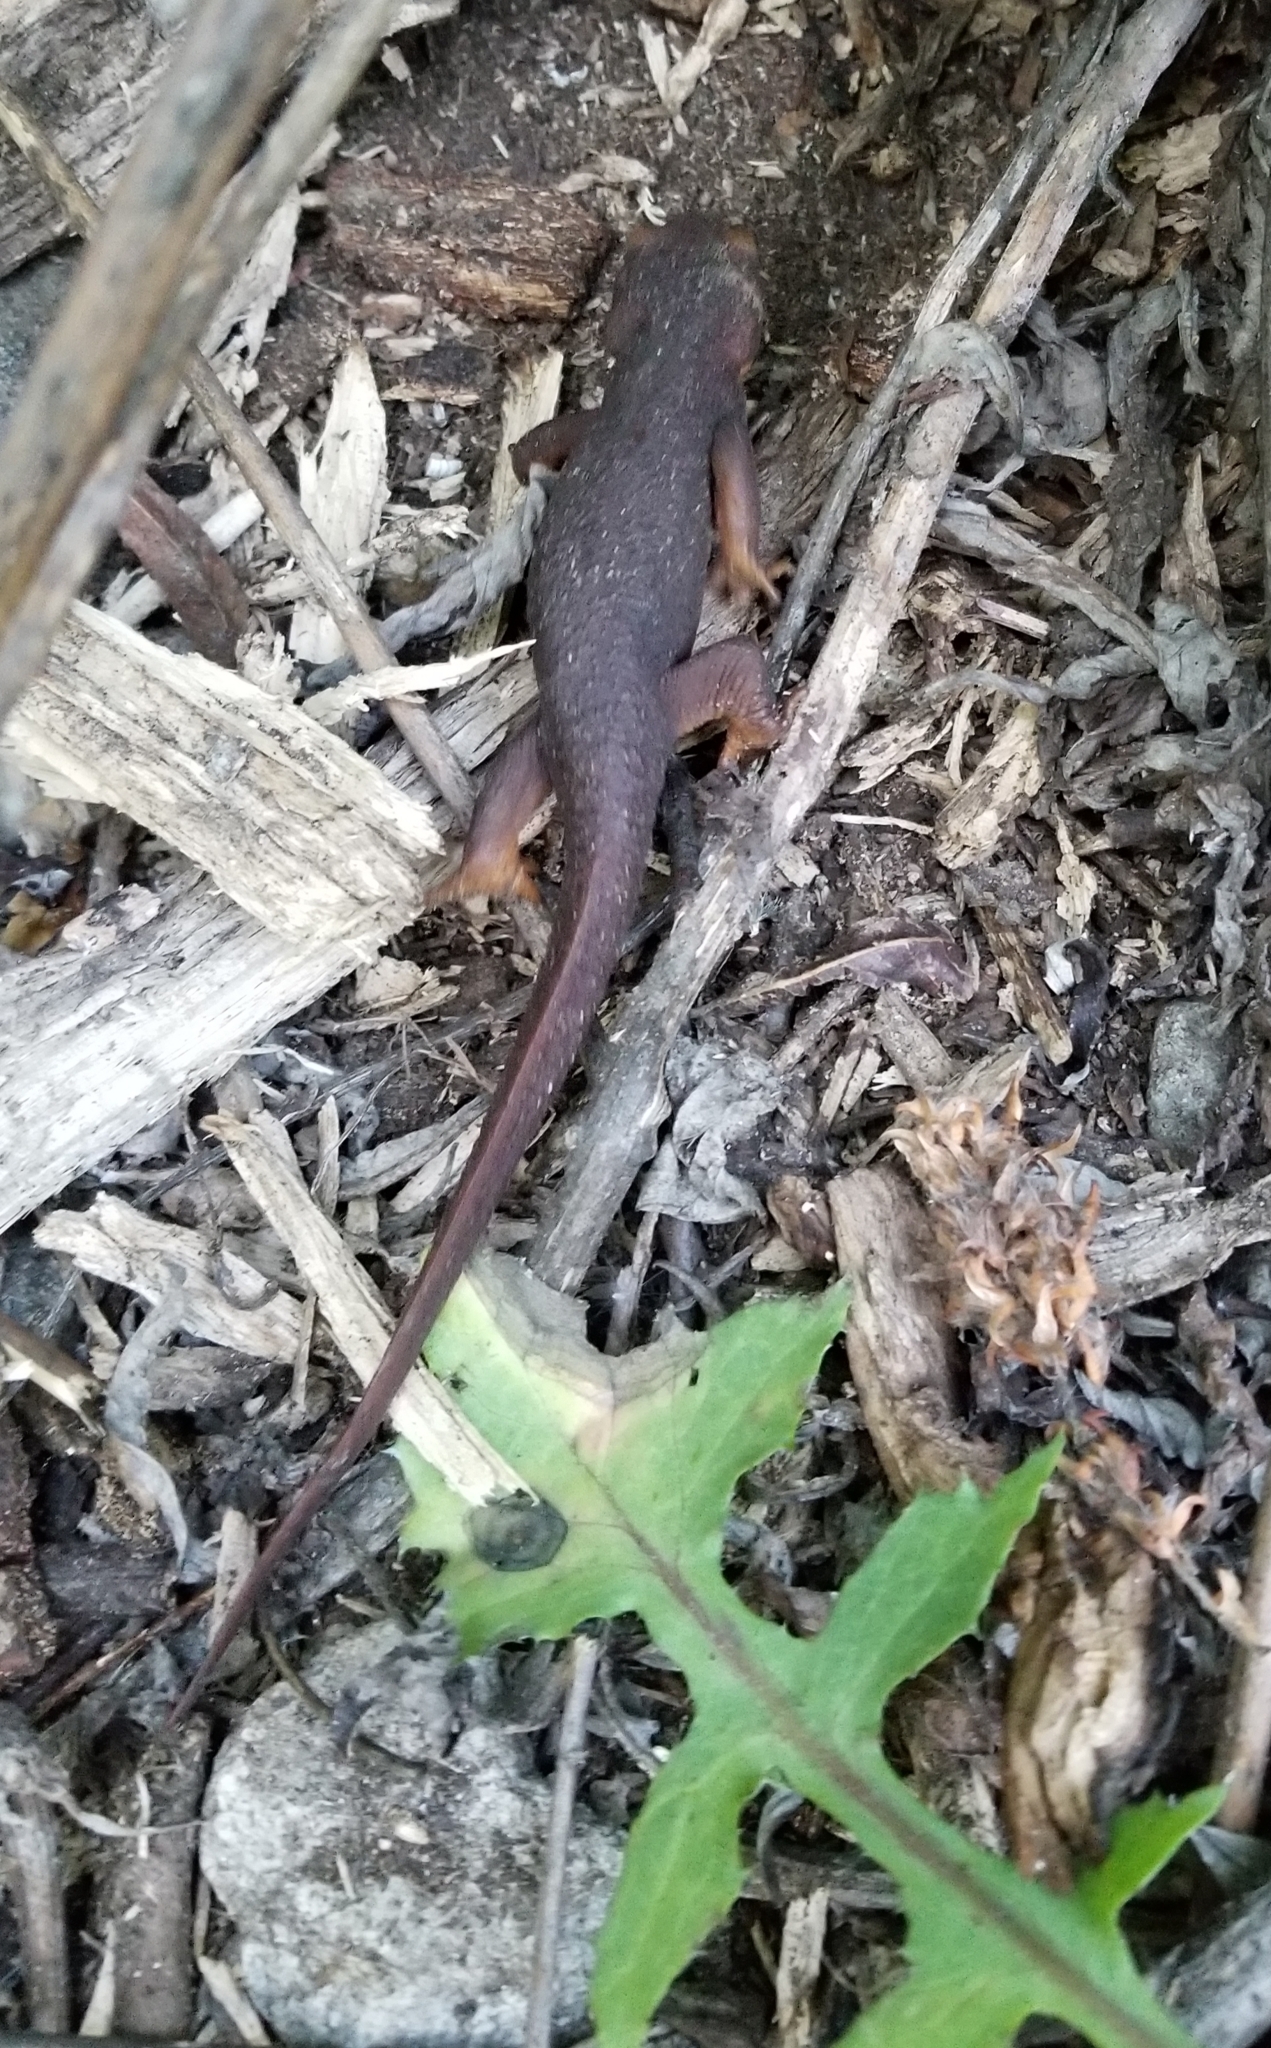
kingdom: Animalia
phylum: Chordata
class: Amphibia
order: Caudata
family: Salamandridae
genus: Taricha
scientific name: Taricha torosa
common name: California newt
